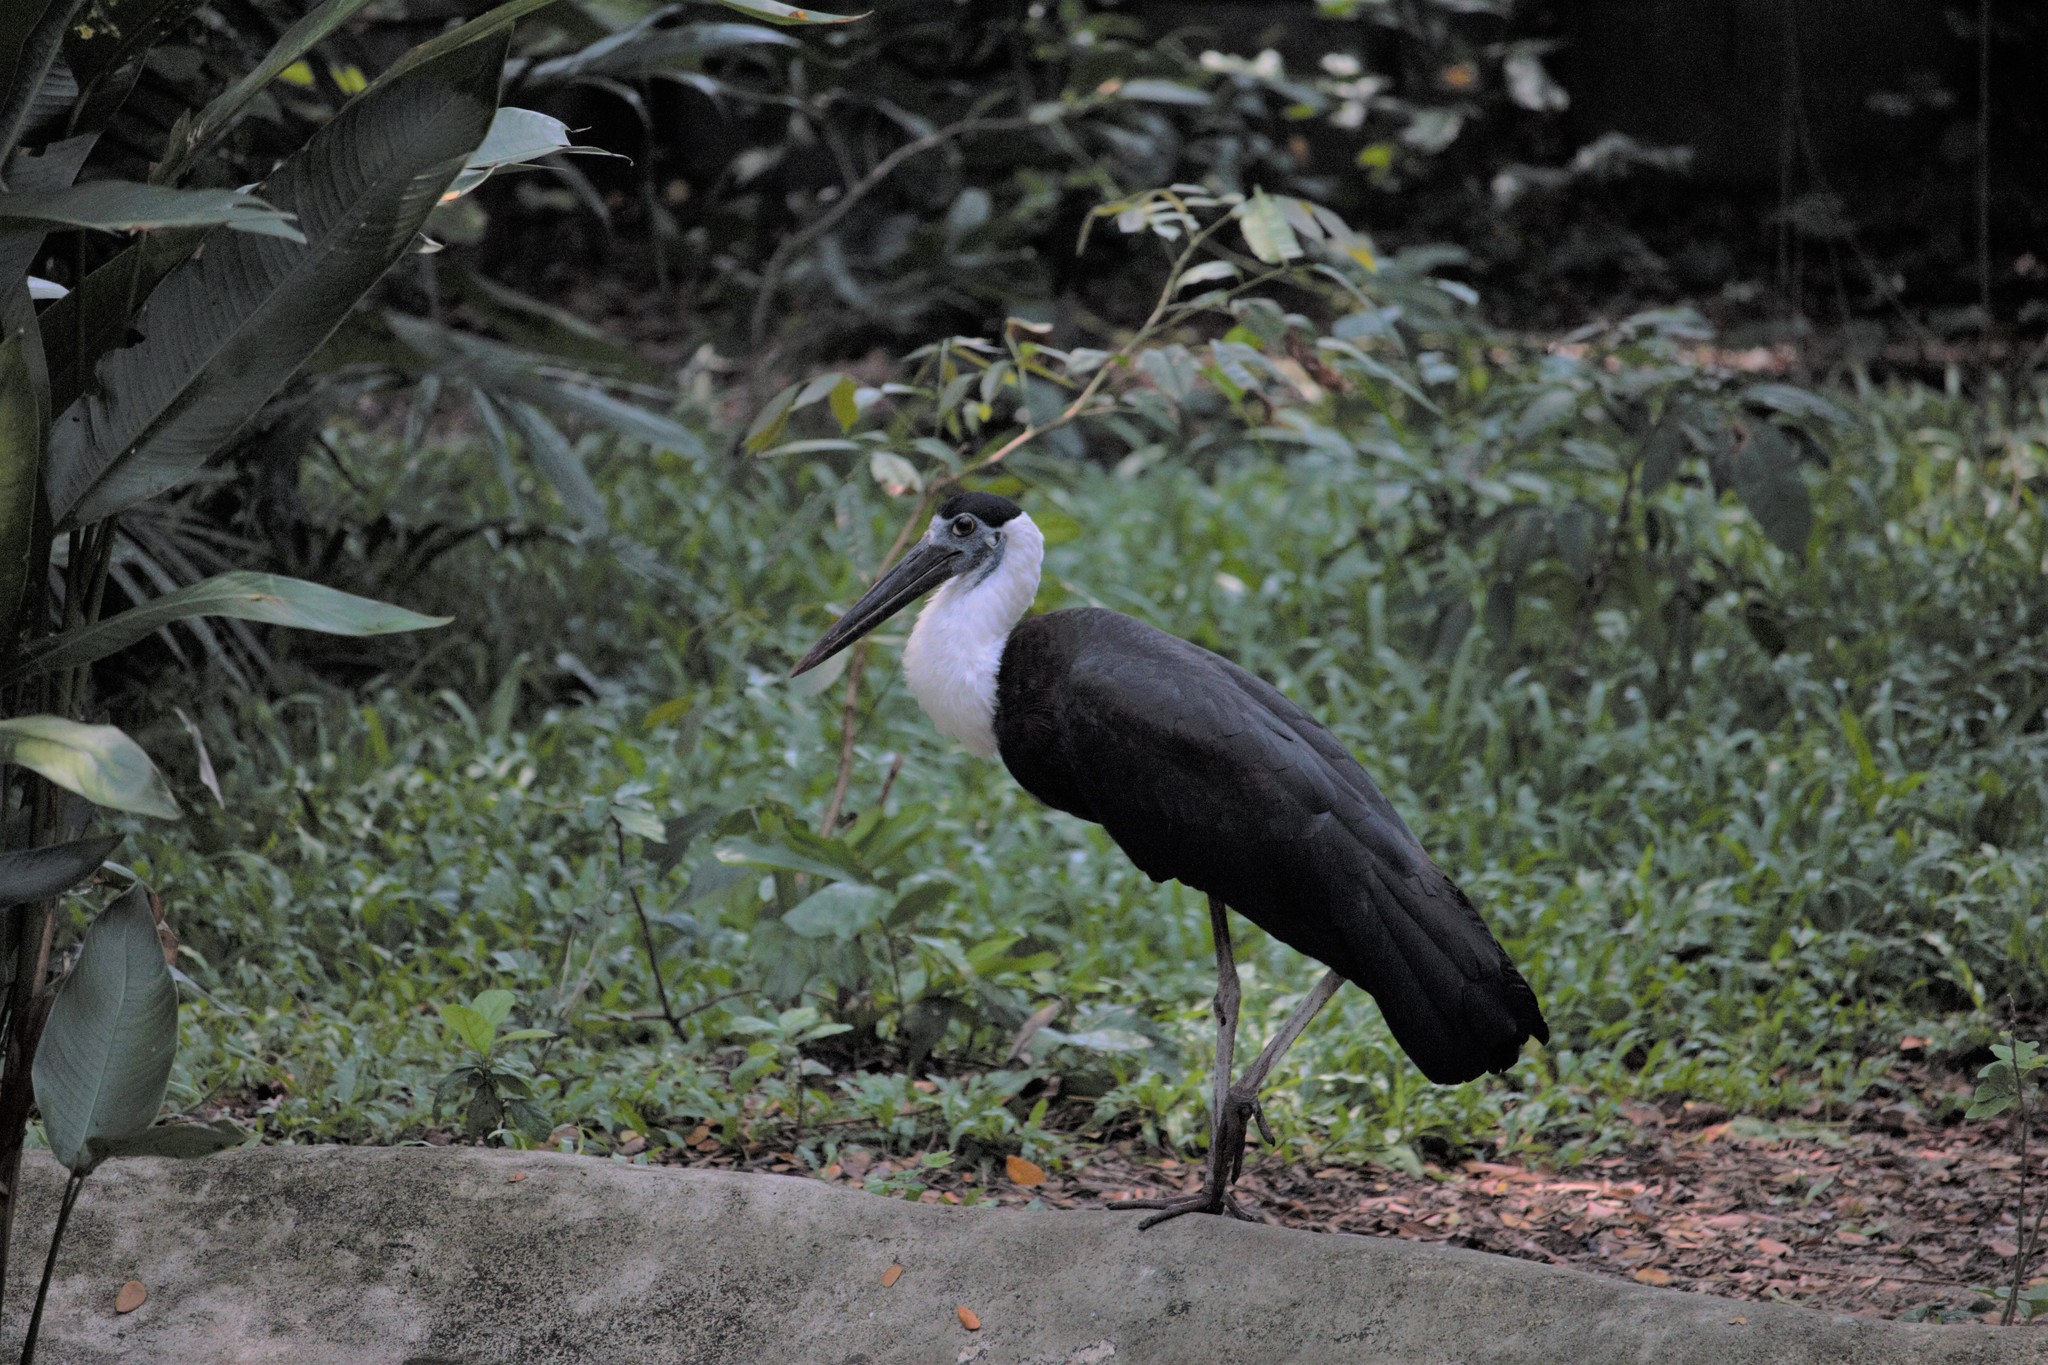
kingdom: Animalia
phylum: Chordata
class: Aves
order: Ciconiiformes
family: Ciconiidae
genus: Ciconia
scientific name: Ciconia episcopus
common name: Woolly-necked stork
